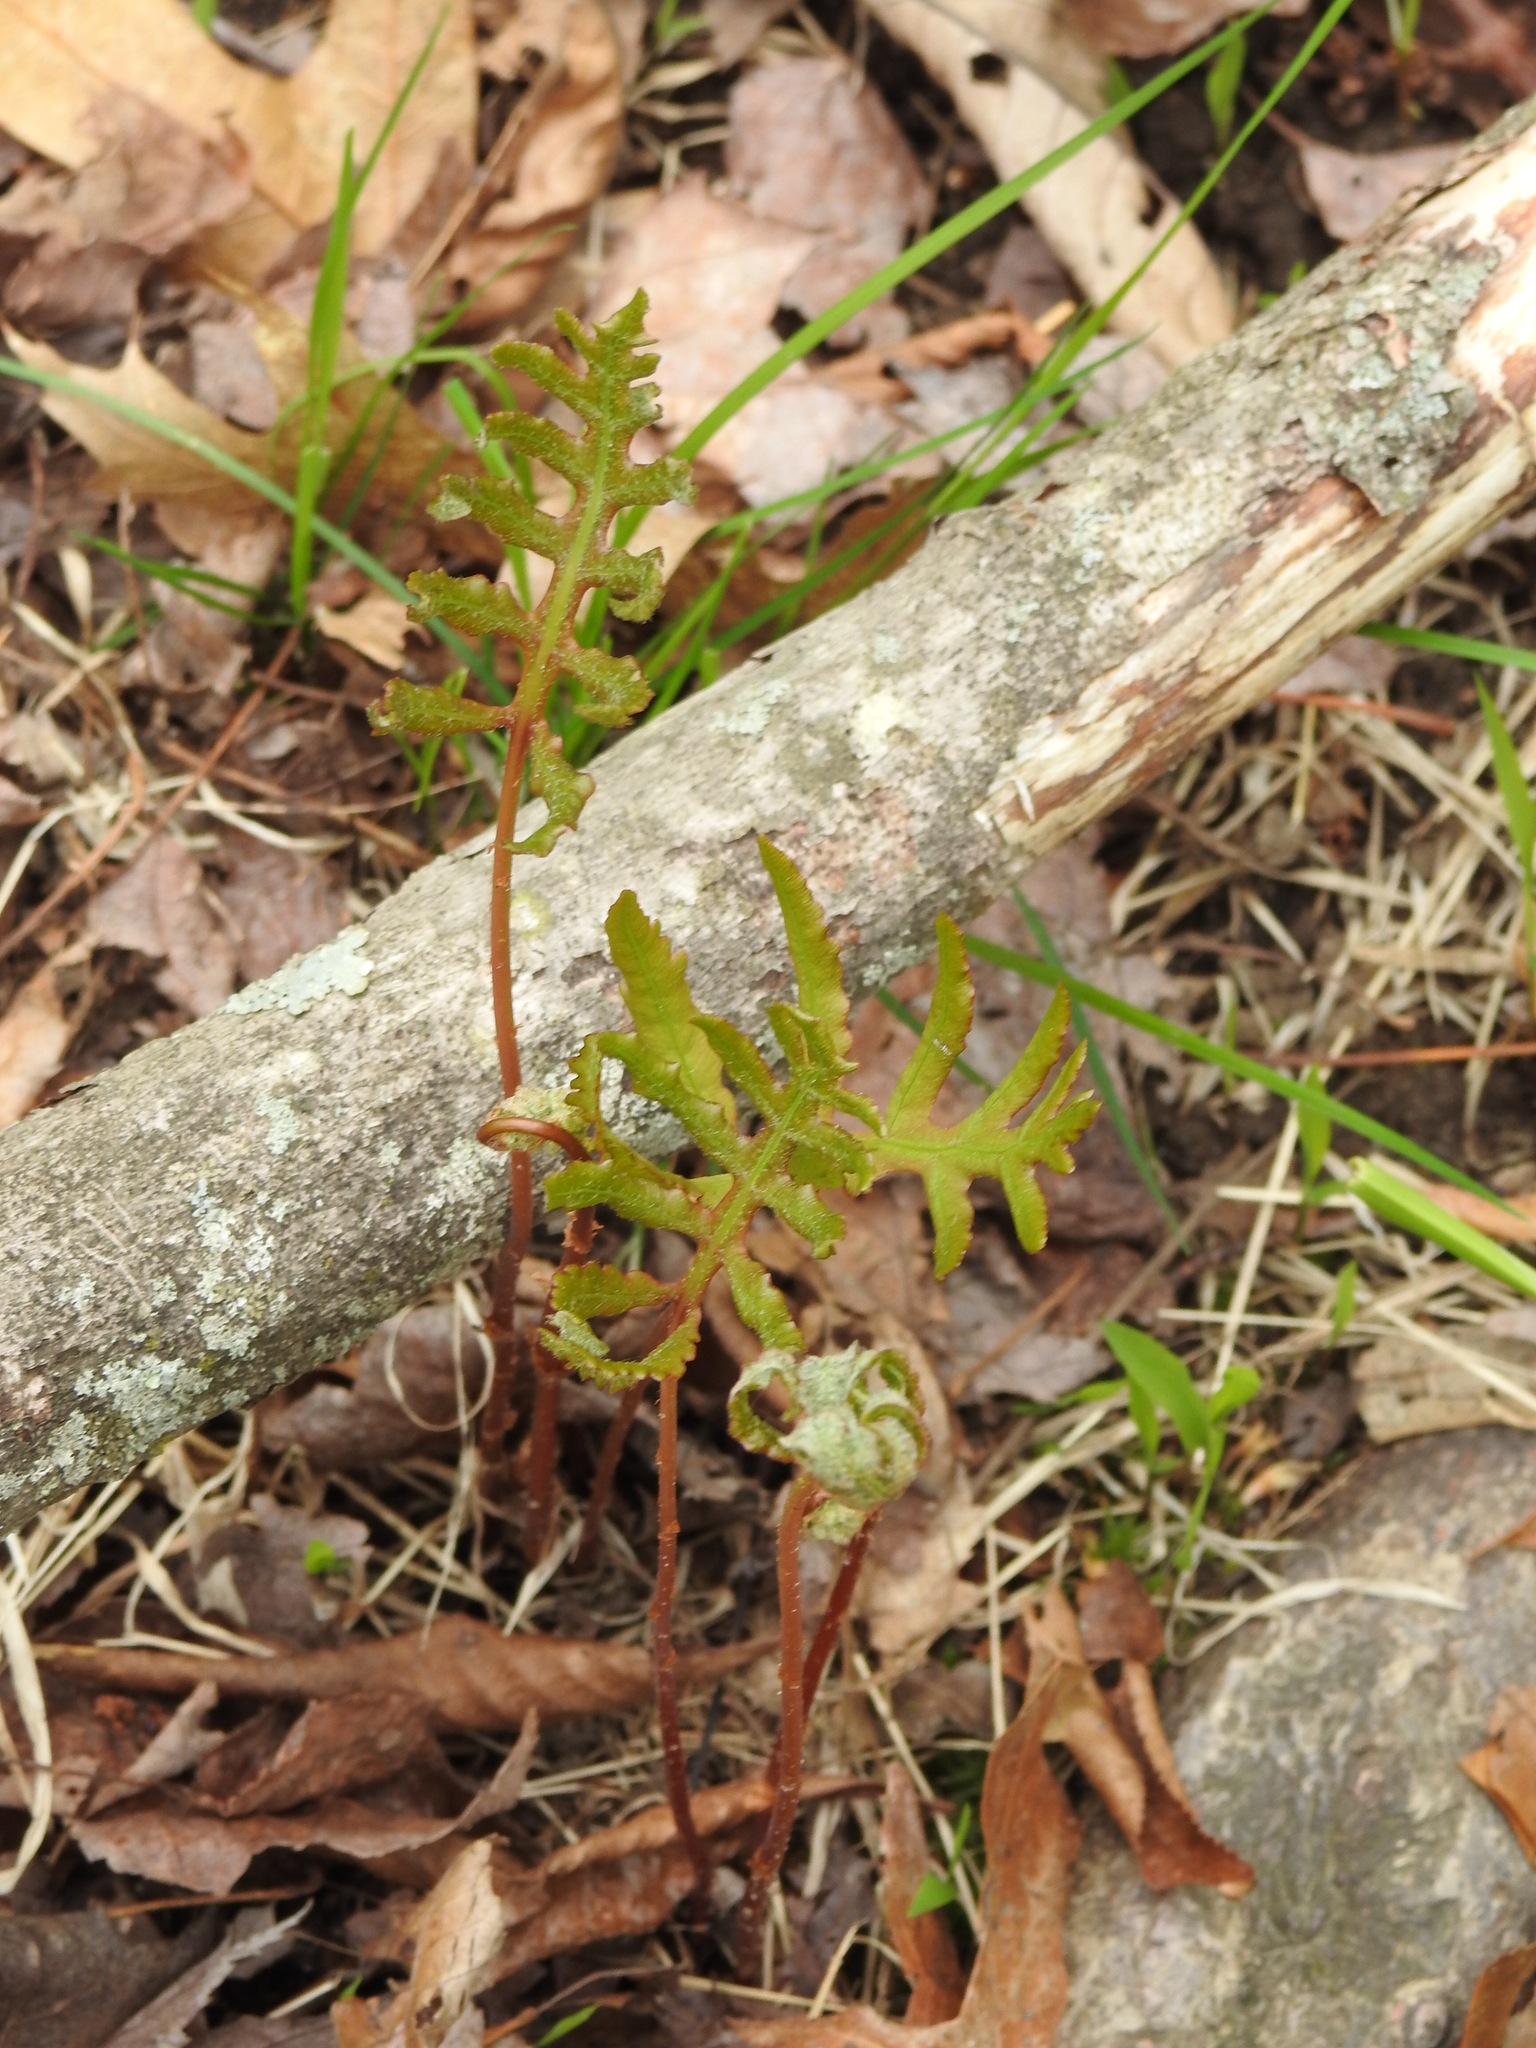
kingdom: Plantae
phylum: Tracheophyta
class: Polypodiopsida
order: Polypodiales
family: Onocleaceae
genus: Onoclea
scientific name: Onoclea sensibilis
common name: Sensitive fern
